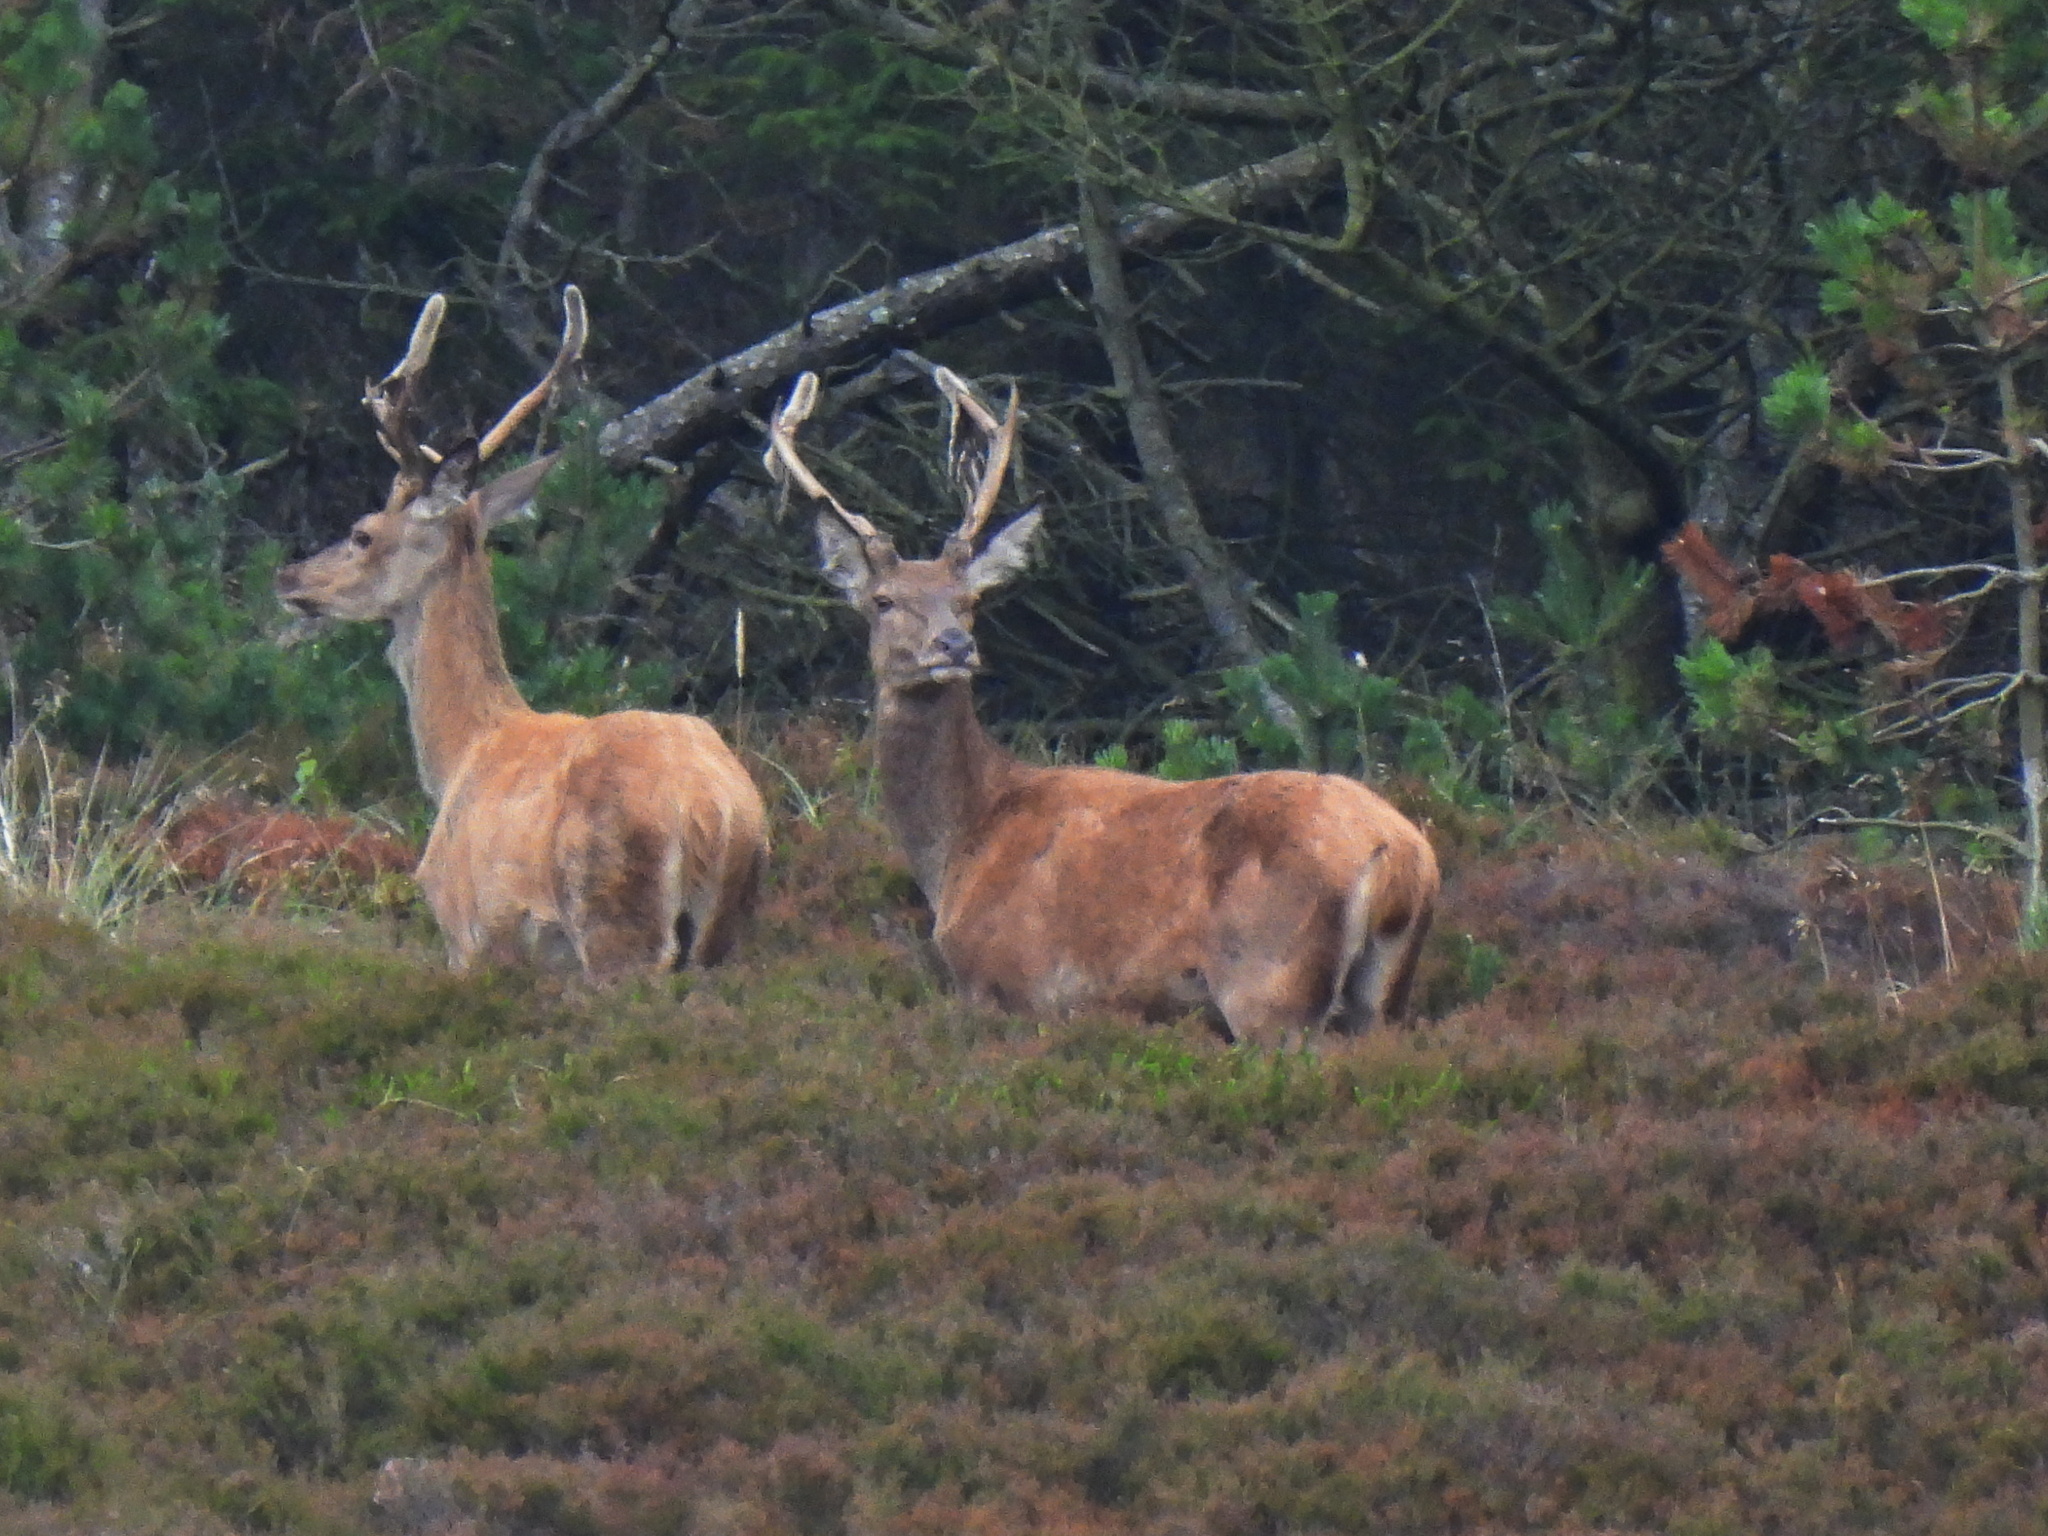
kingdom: Animalia
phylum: Chordata
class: Mammalia
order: Artiodactyla
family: Cervidae
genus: Cervus
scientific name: Cervus elaphus
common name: Red deer
